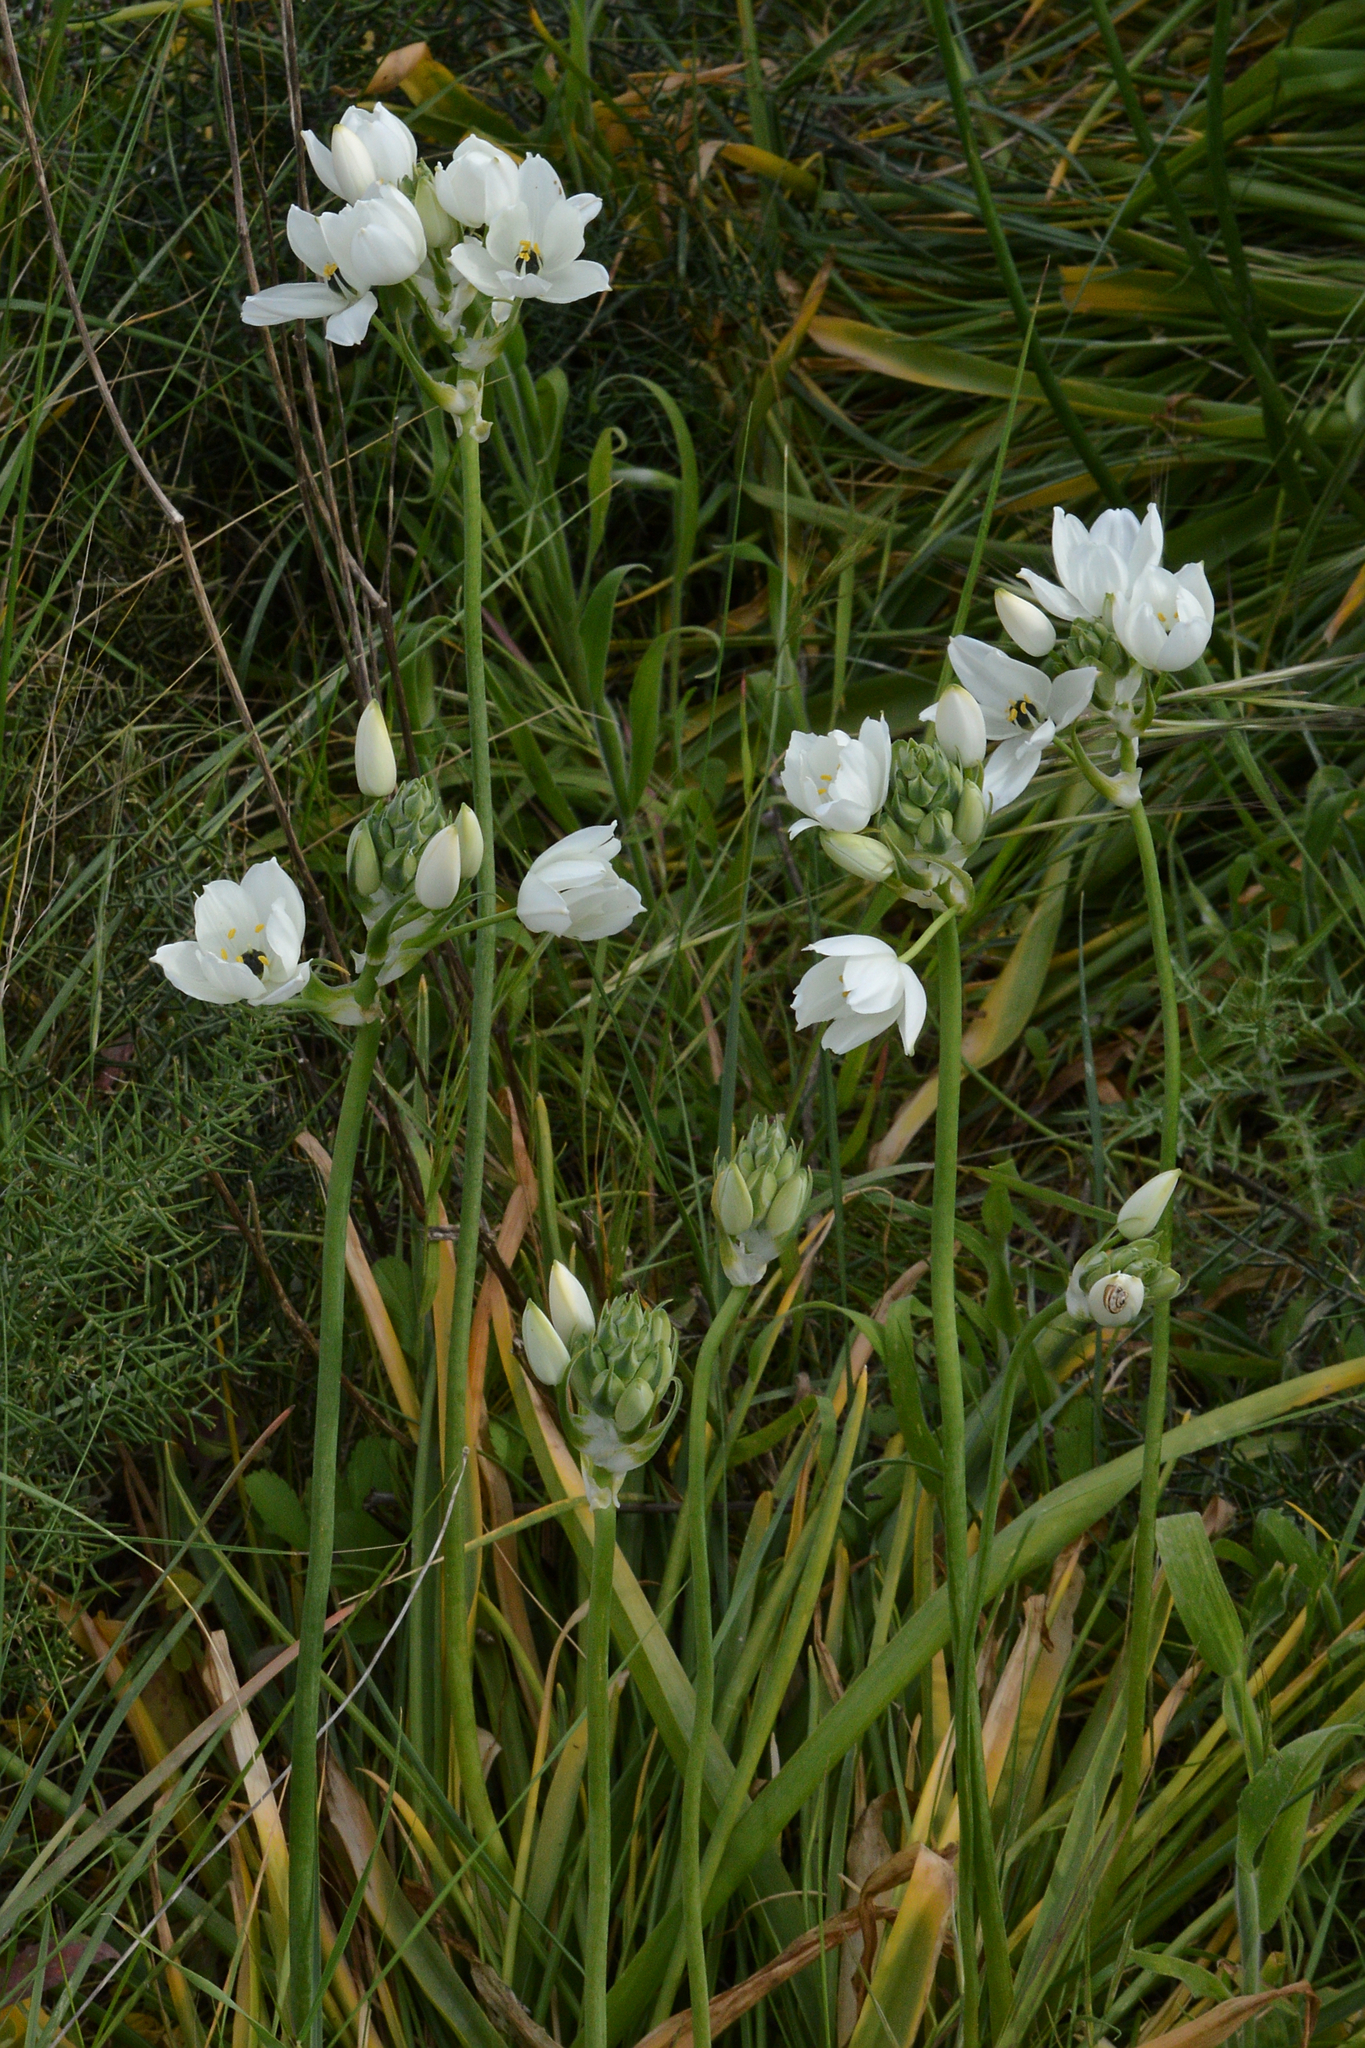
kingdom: Plantae
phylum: Tracheophyta
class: Liliopsida
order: Asparagales
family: Asparagaceae
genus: Ornithogalum
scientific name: Ornithogalum arabicum
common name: Arabian starflower
